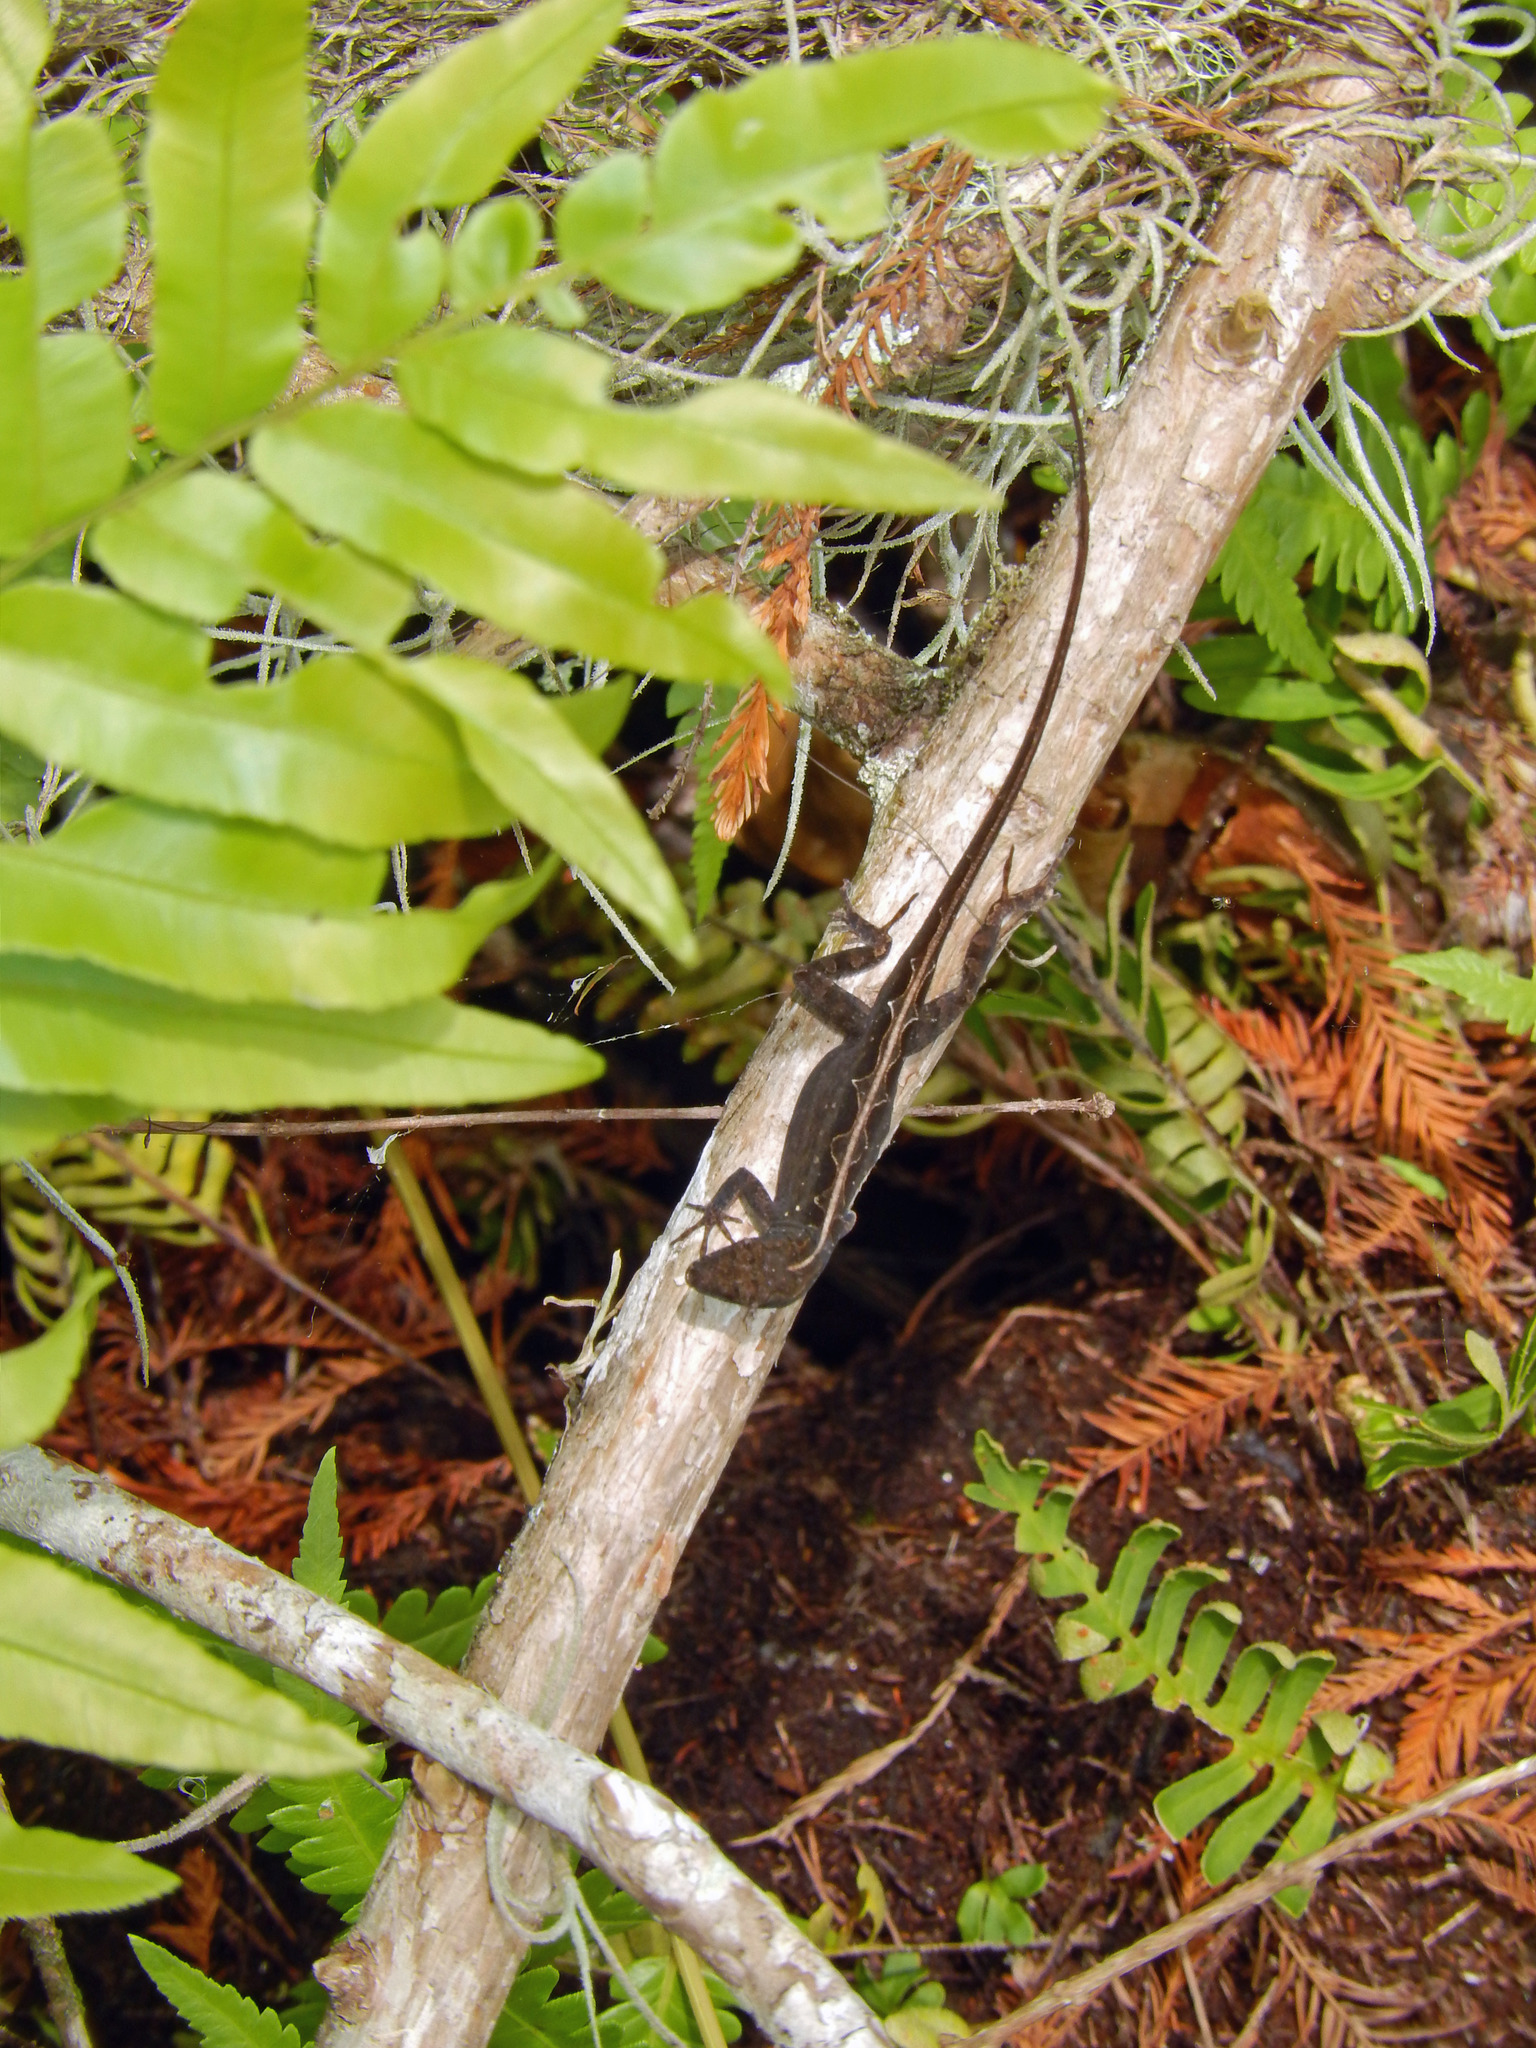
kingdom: Animalia
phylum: Chordata
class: Squamata
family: Dactyloidae
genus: Anolis
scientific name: Anolis sagrei
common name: Brown anole
